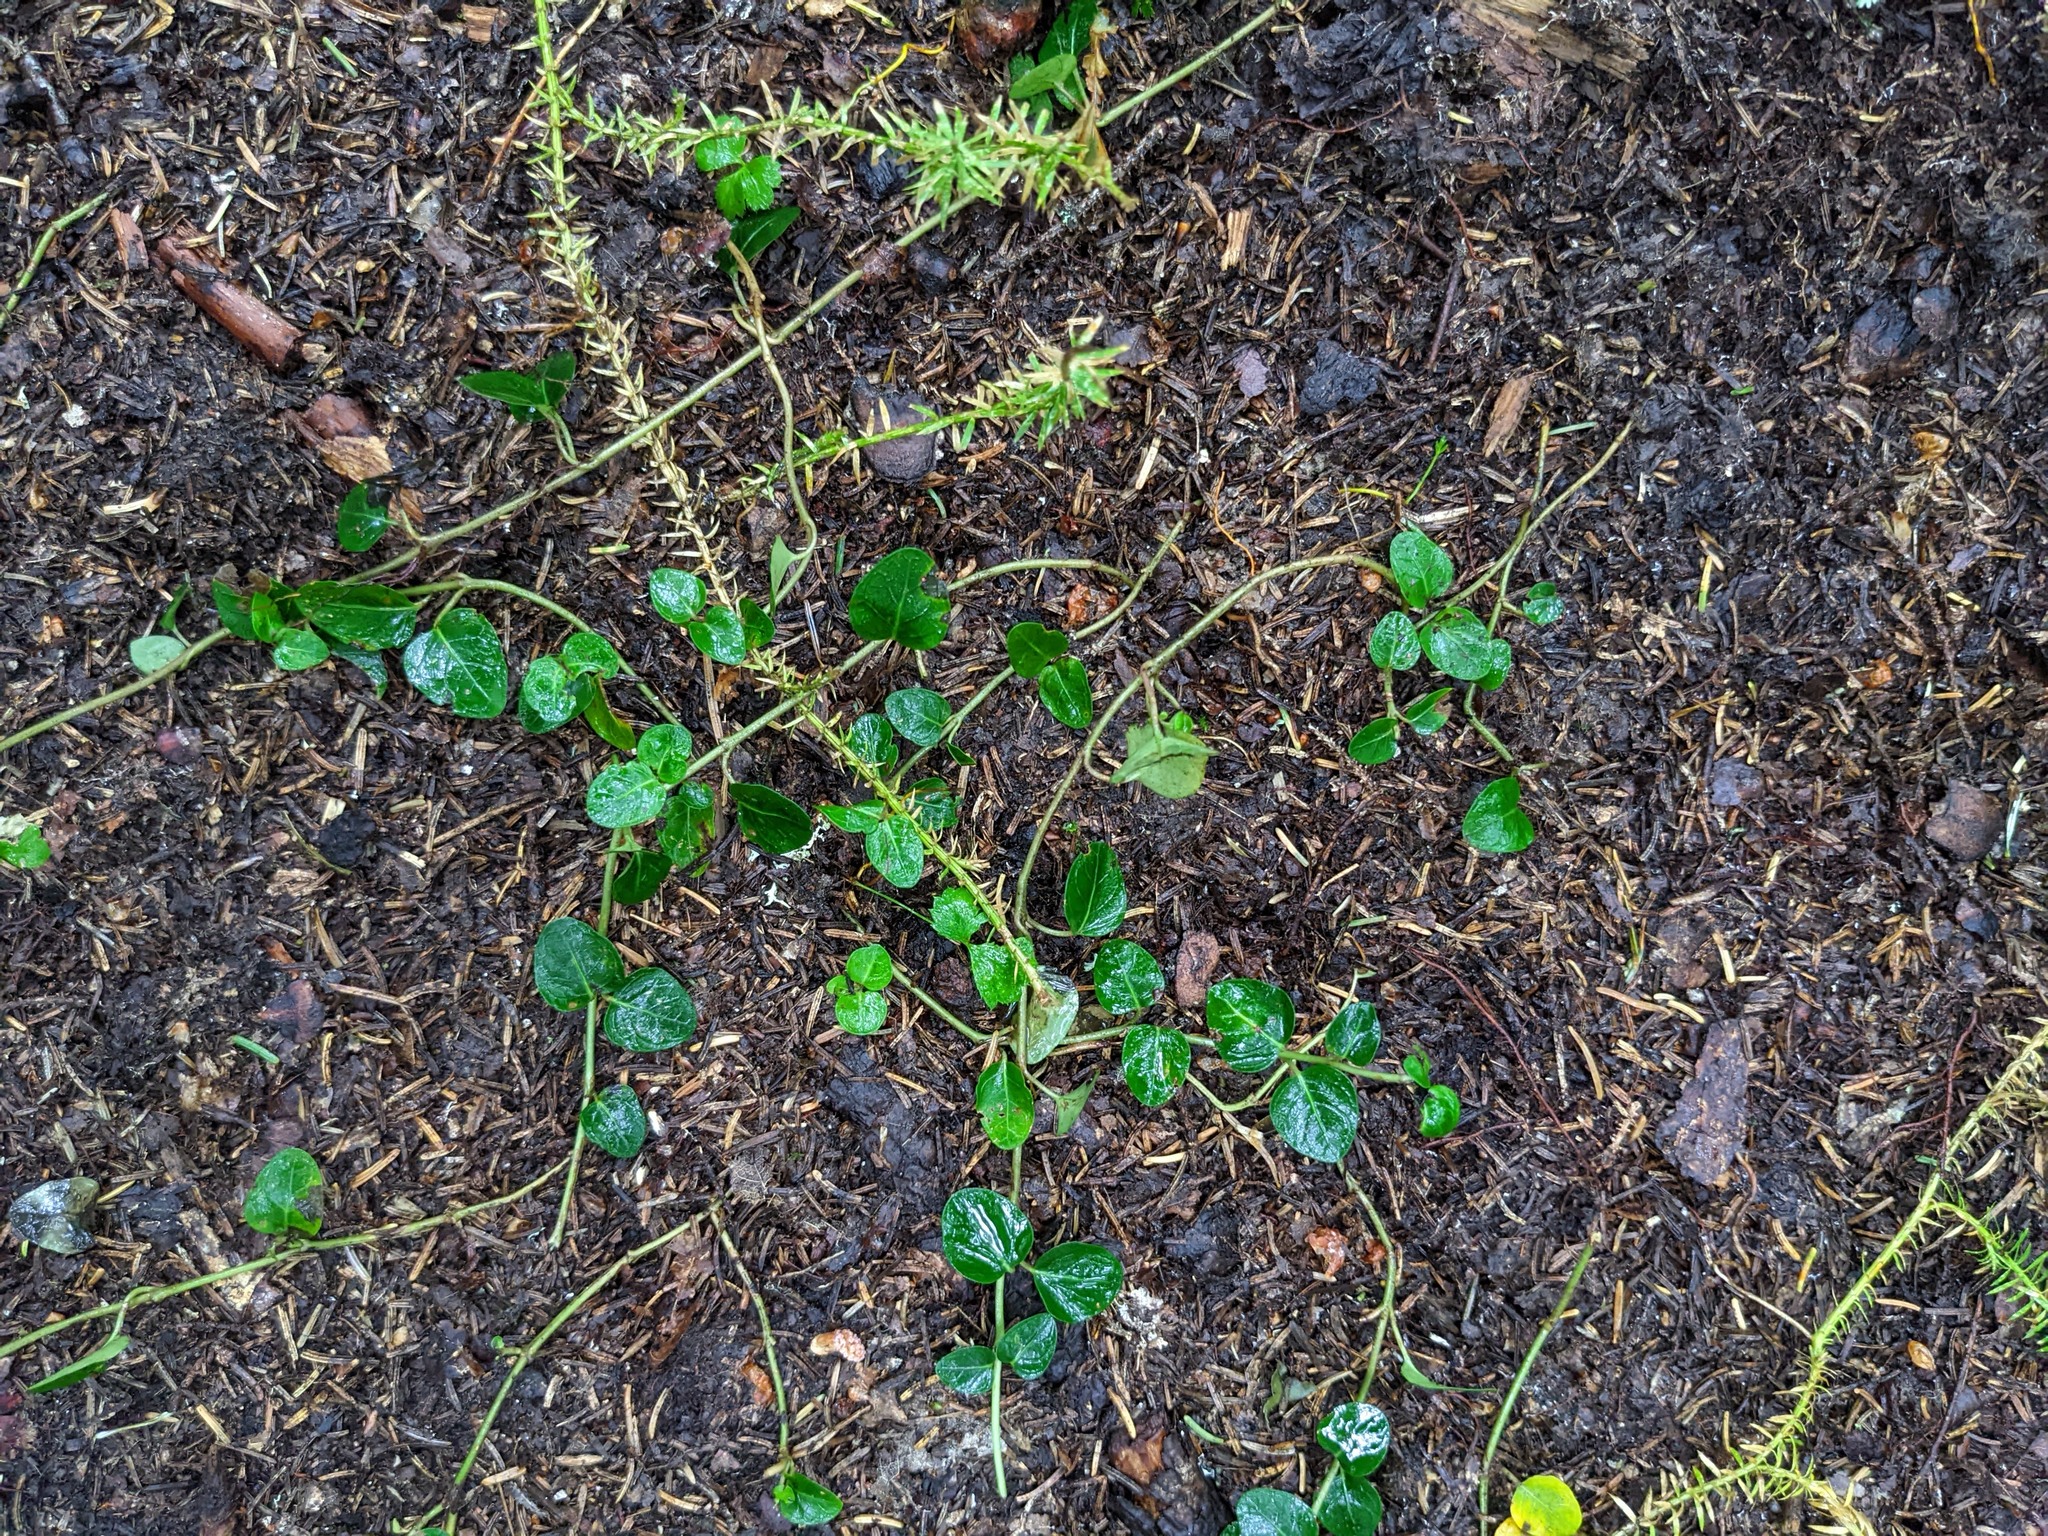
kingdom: Plantae
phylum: Tracheophyta
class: Magnoliopsida
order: Gentianales
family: Rubiaceae
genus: Mitchella
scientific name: Mitchella repens
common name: Partridge-berry
